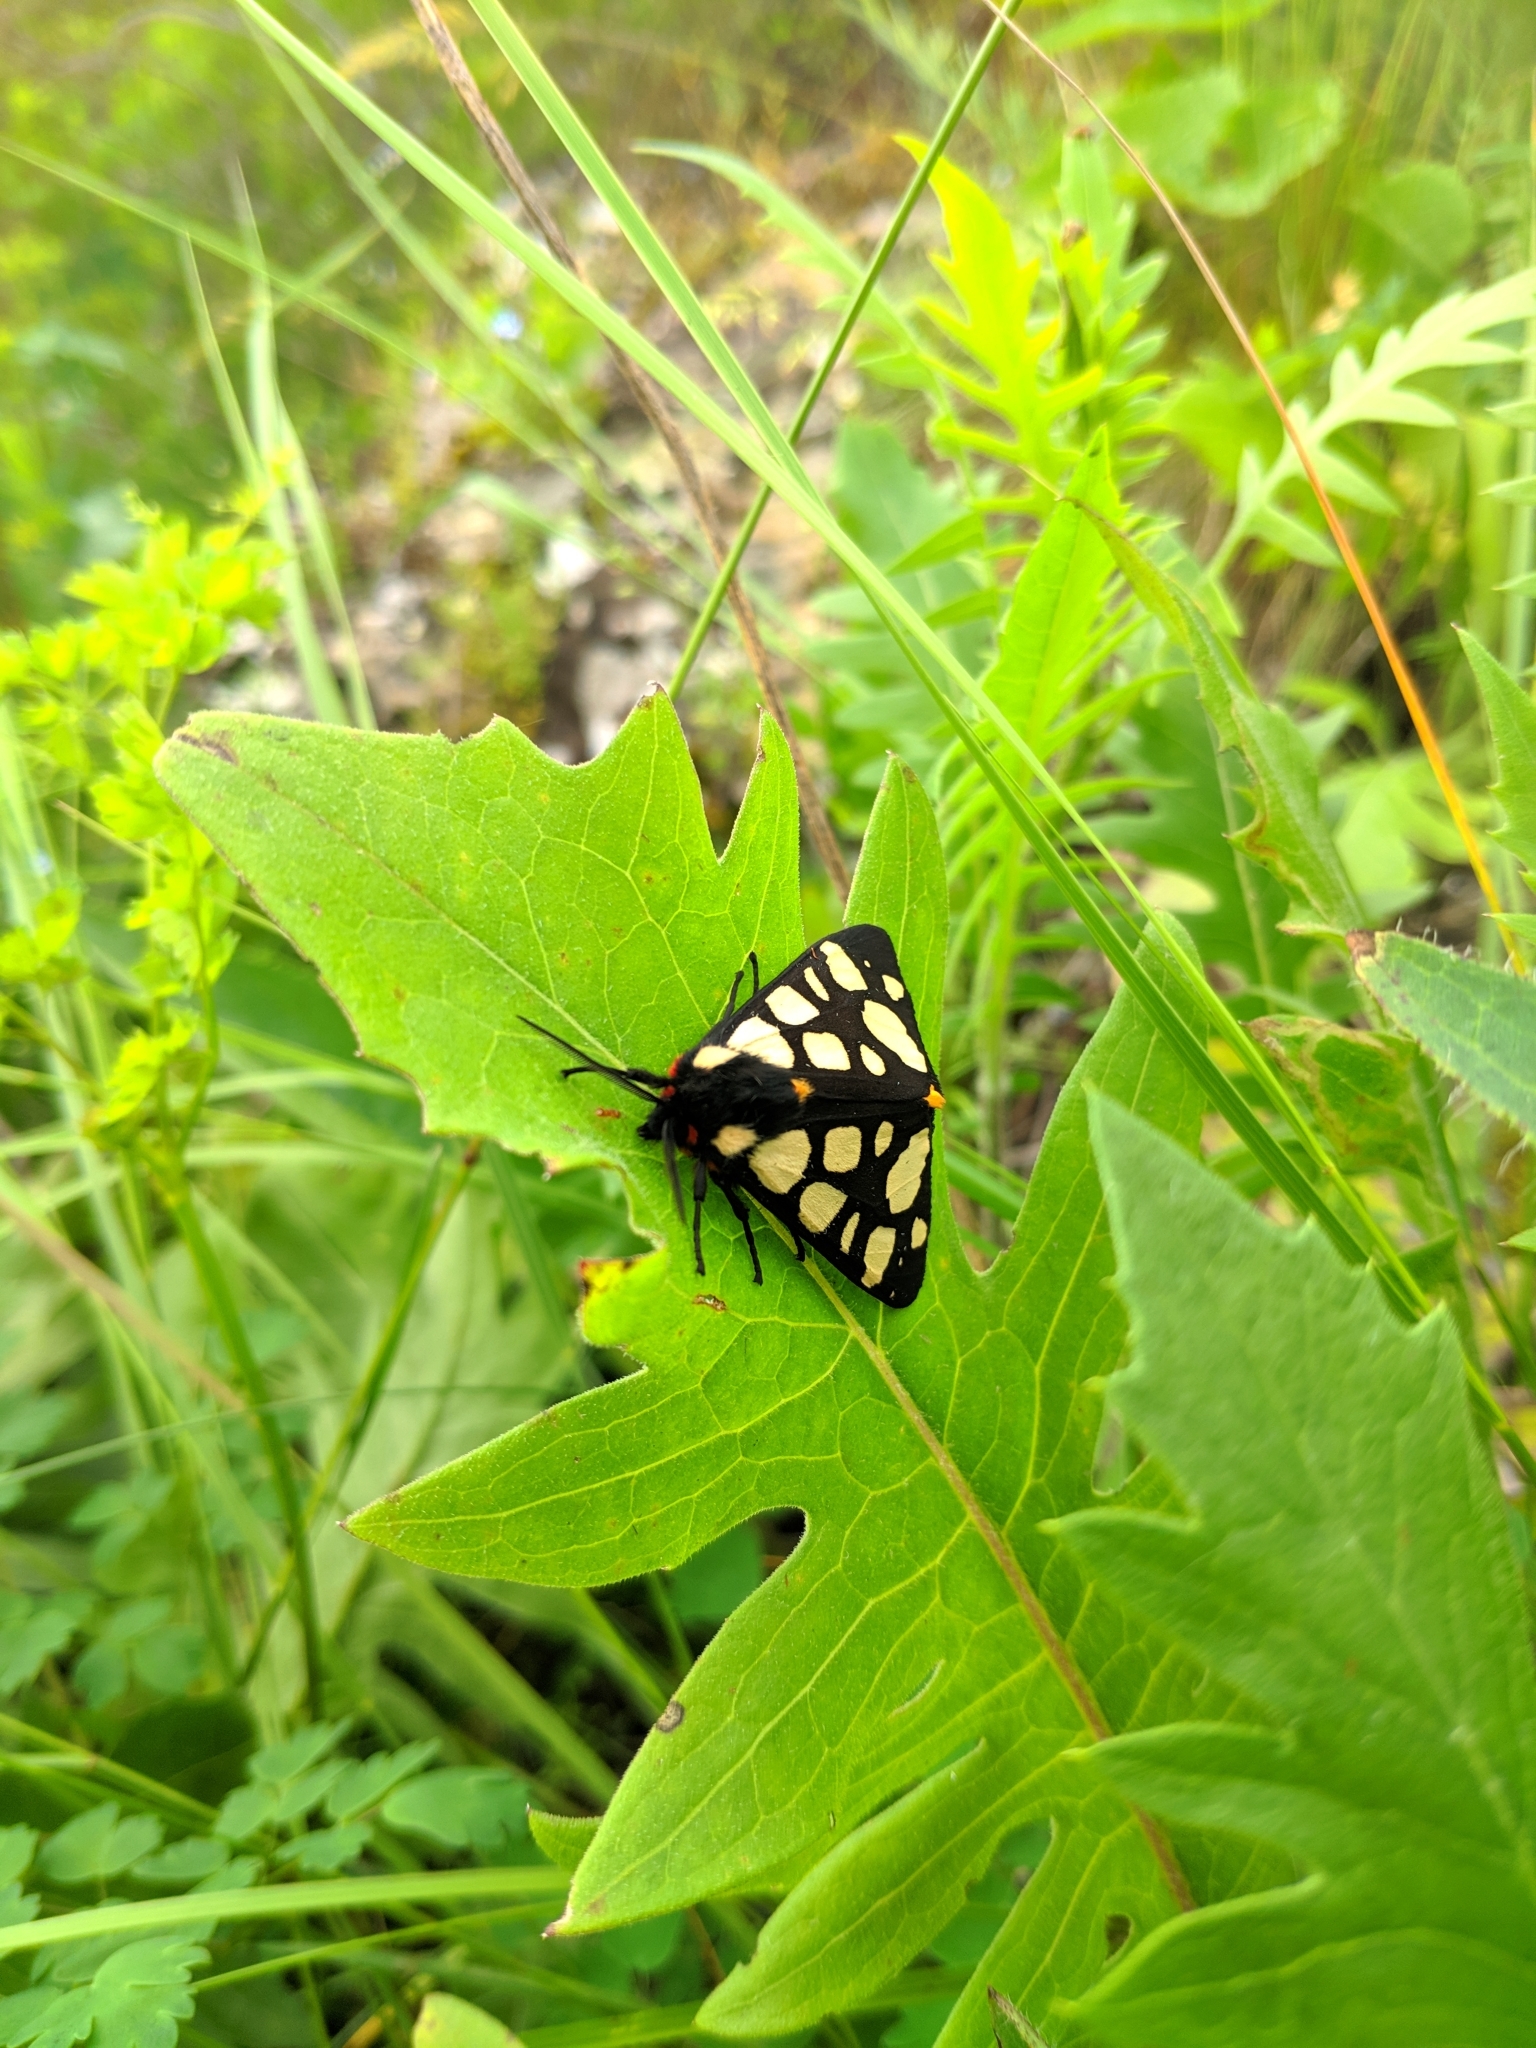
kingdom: Animalia
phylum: Arthropoda
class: Insecta
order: Lepidoptera
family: Erebidae
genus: Epicallia
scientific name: Epicallia villica
